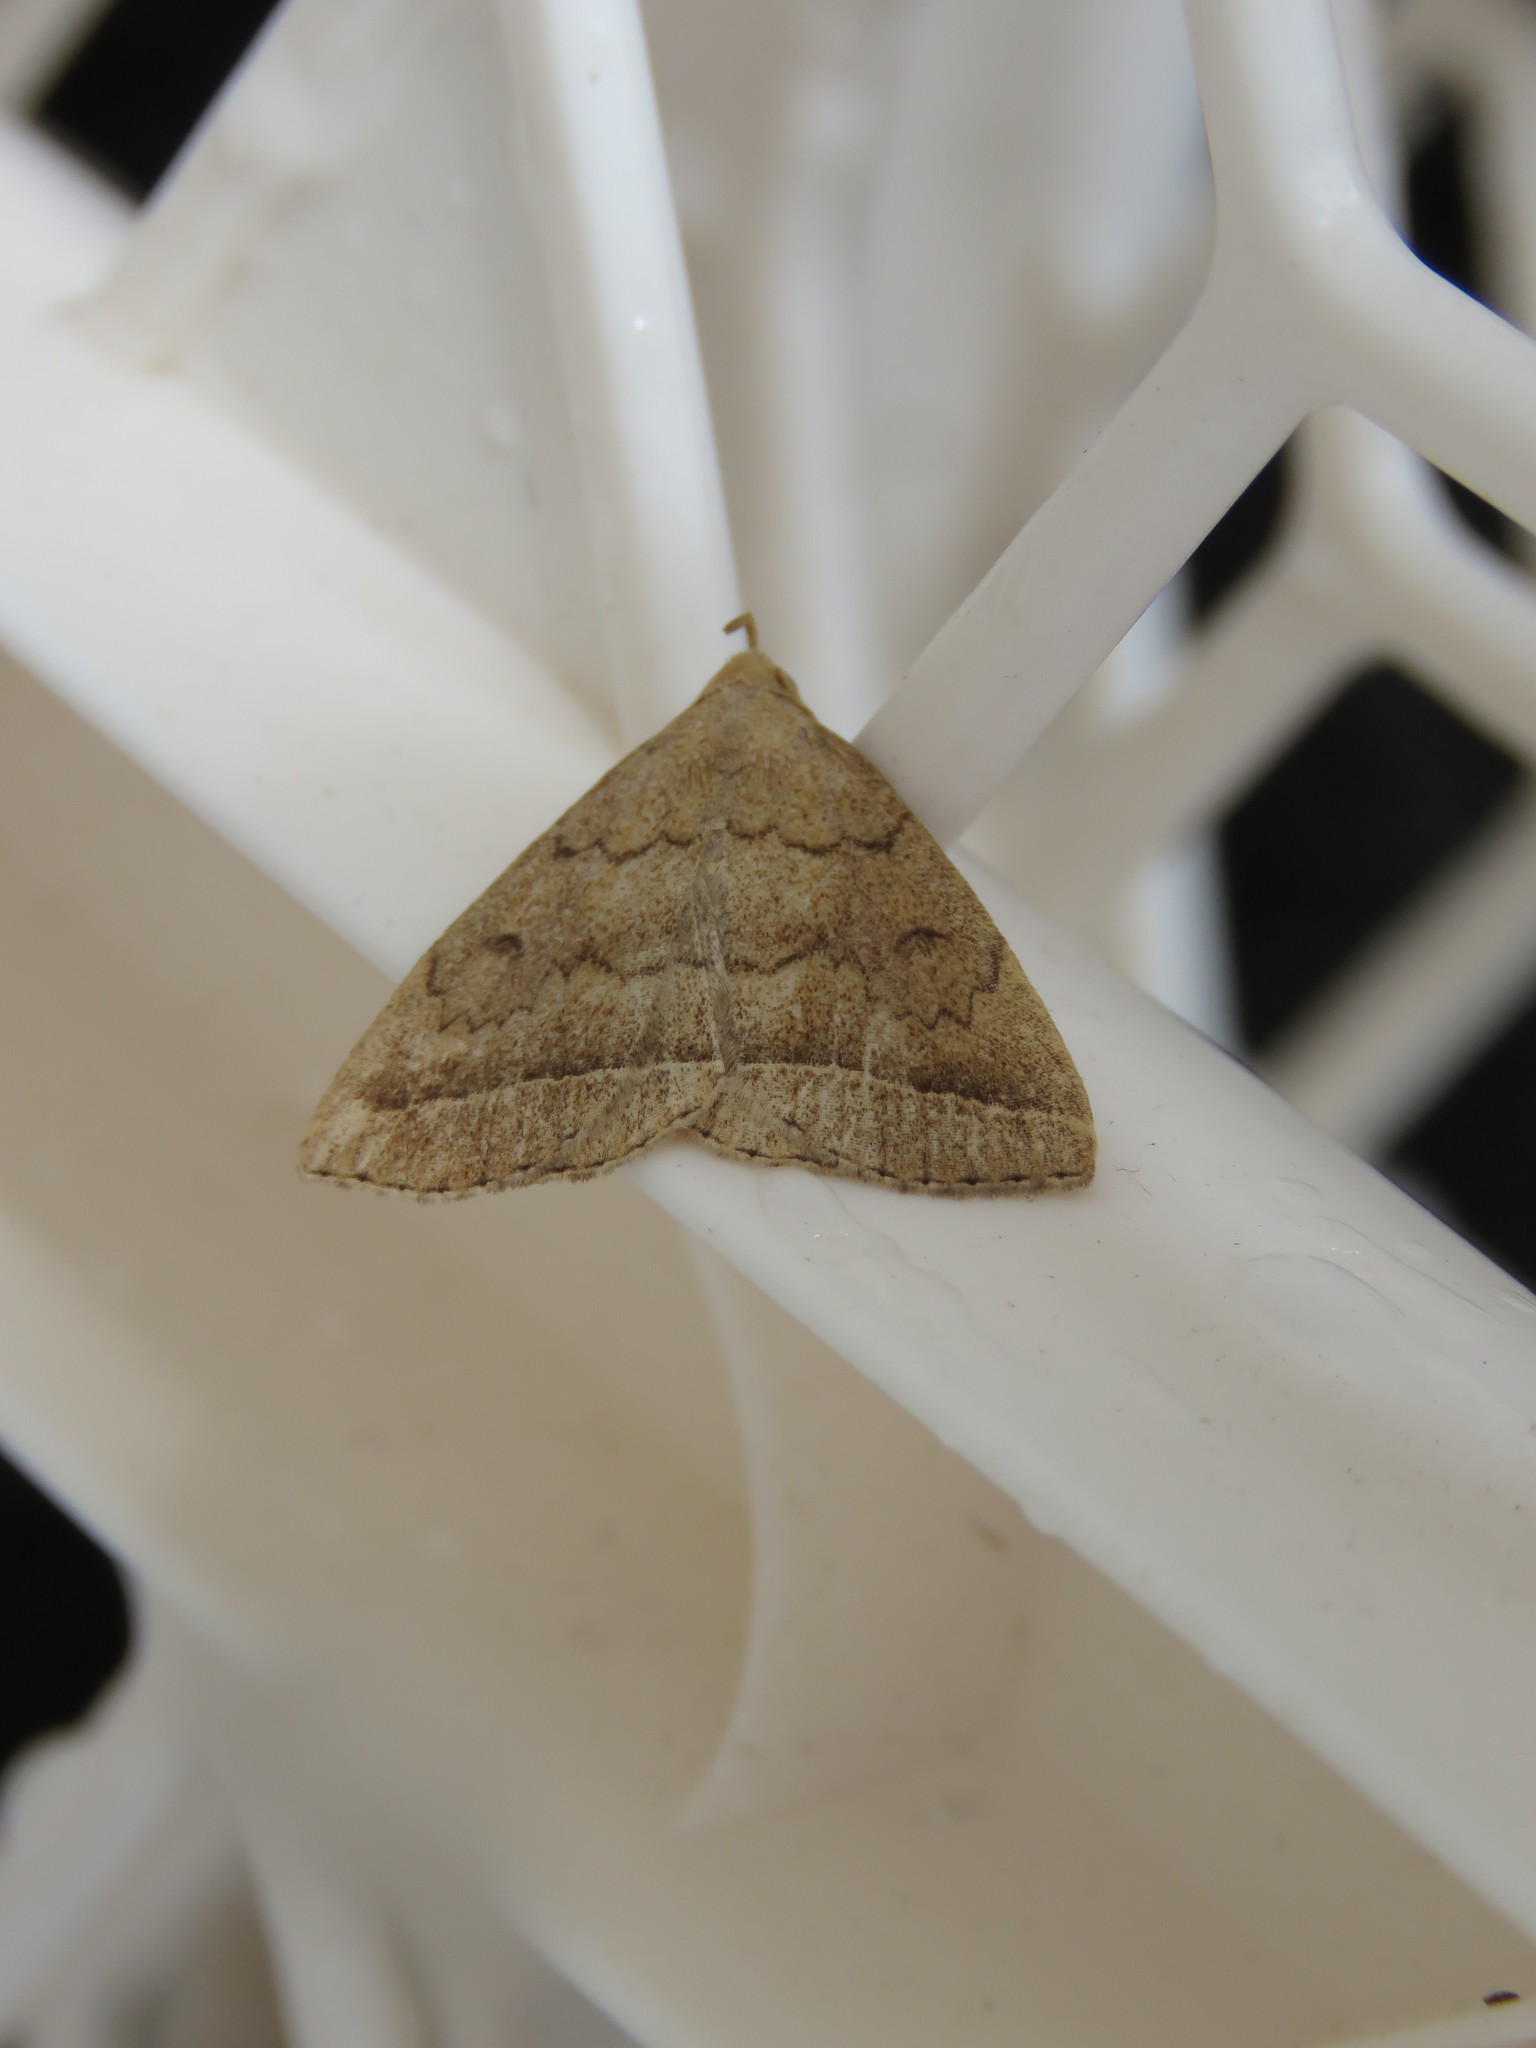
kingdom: Animalia
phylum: Arthropoda
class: Insecta
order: Lepidoptera
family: Erebidae
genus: Zanclognatha
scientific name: Zanclognatha jacchusalis
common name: Yellowish zanclognatha
